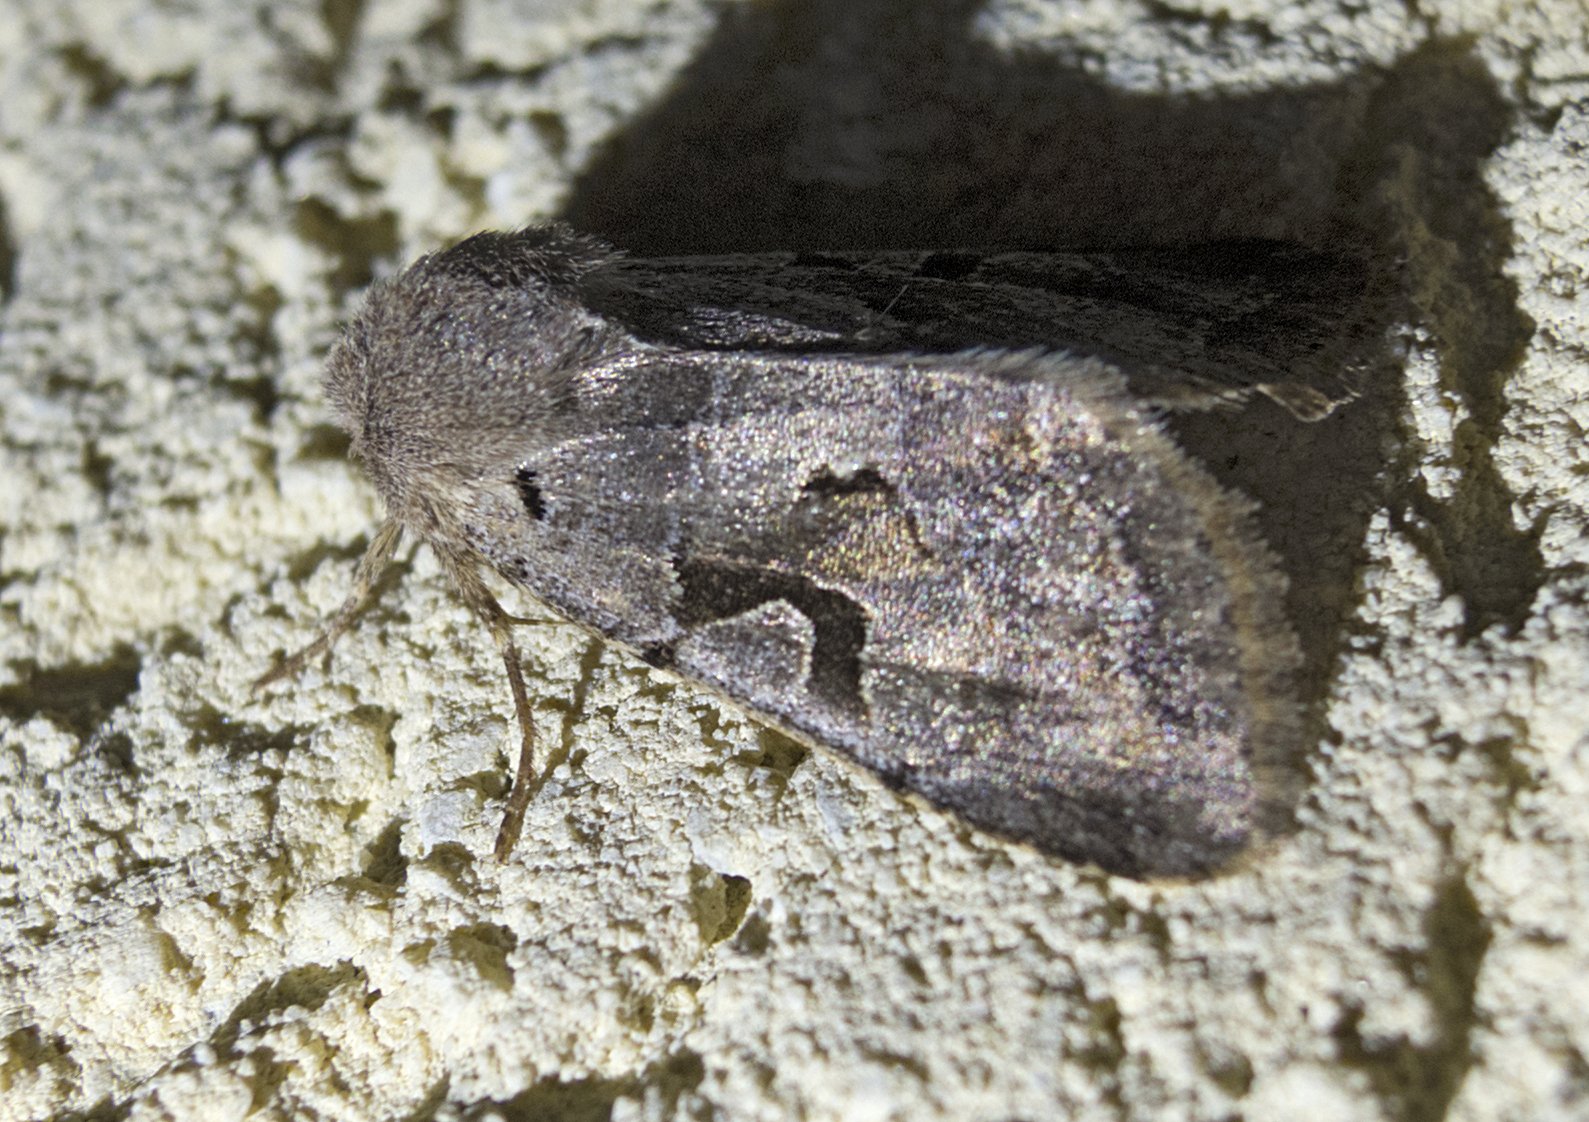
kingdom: Animalia
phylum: Arthropoda
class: Insecta
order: Lepidoptera
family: Noctuidae
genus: Orthosia
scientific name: Orthosia gothica
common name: Hebrew character
